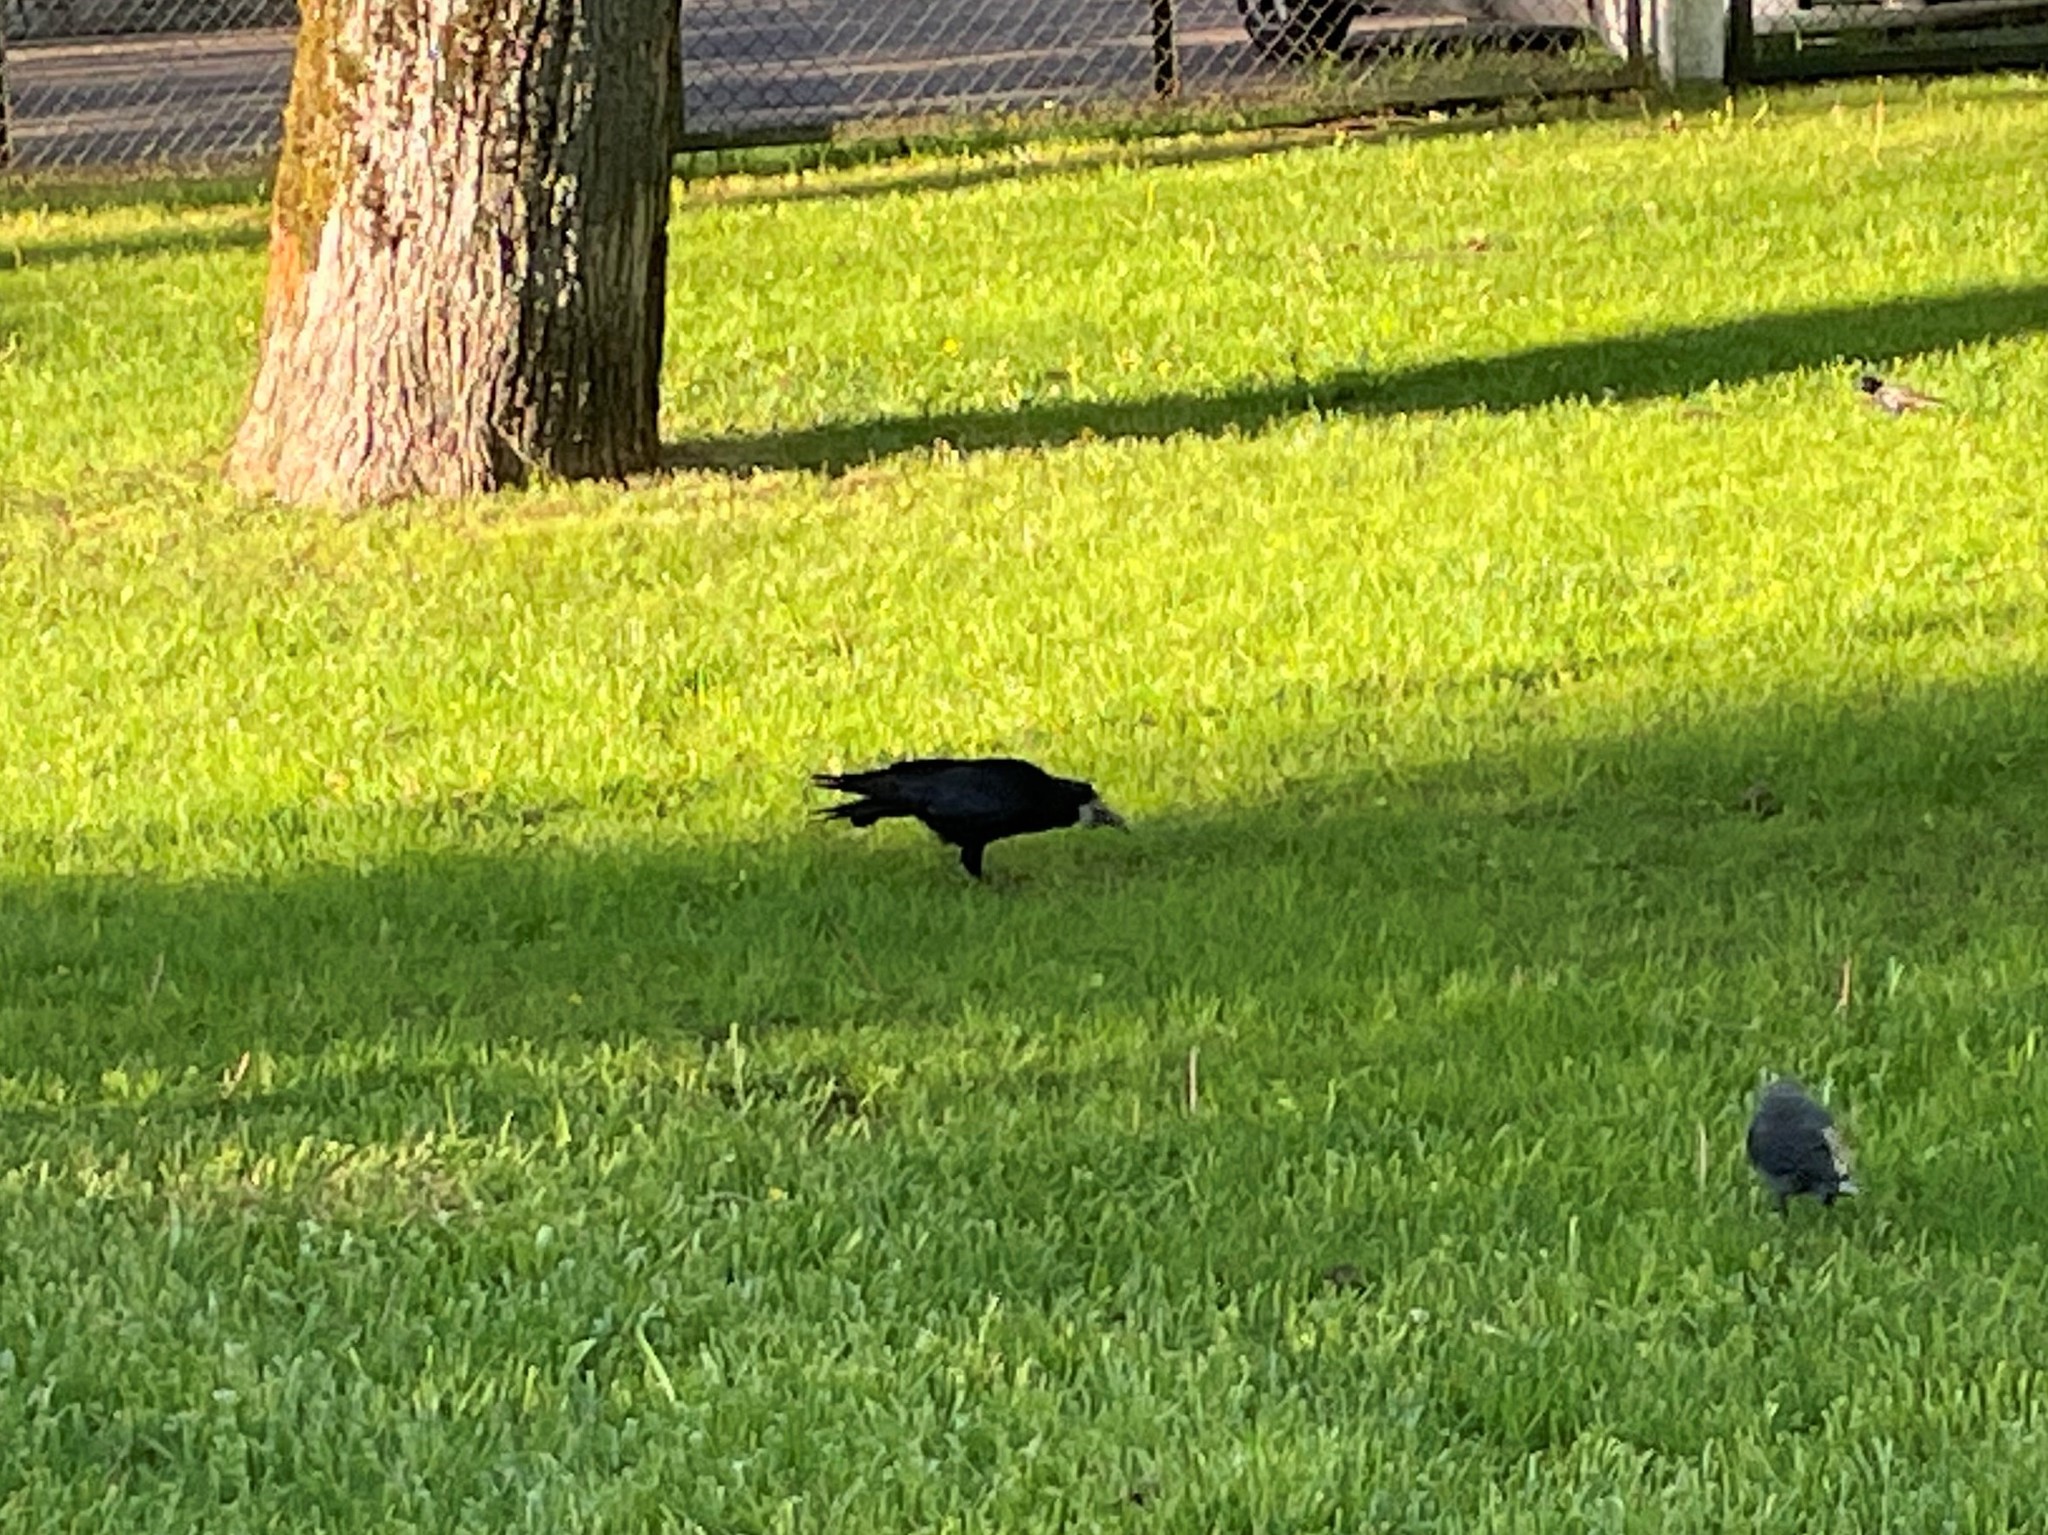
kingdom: Animalia
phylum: Chordata
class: Aves
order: Passeriformes
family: Corvidae
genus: Corvus
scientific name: Corvus frugilegus
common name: Rook
